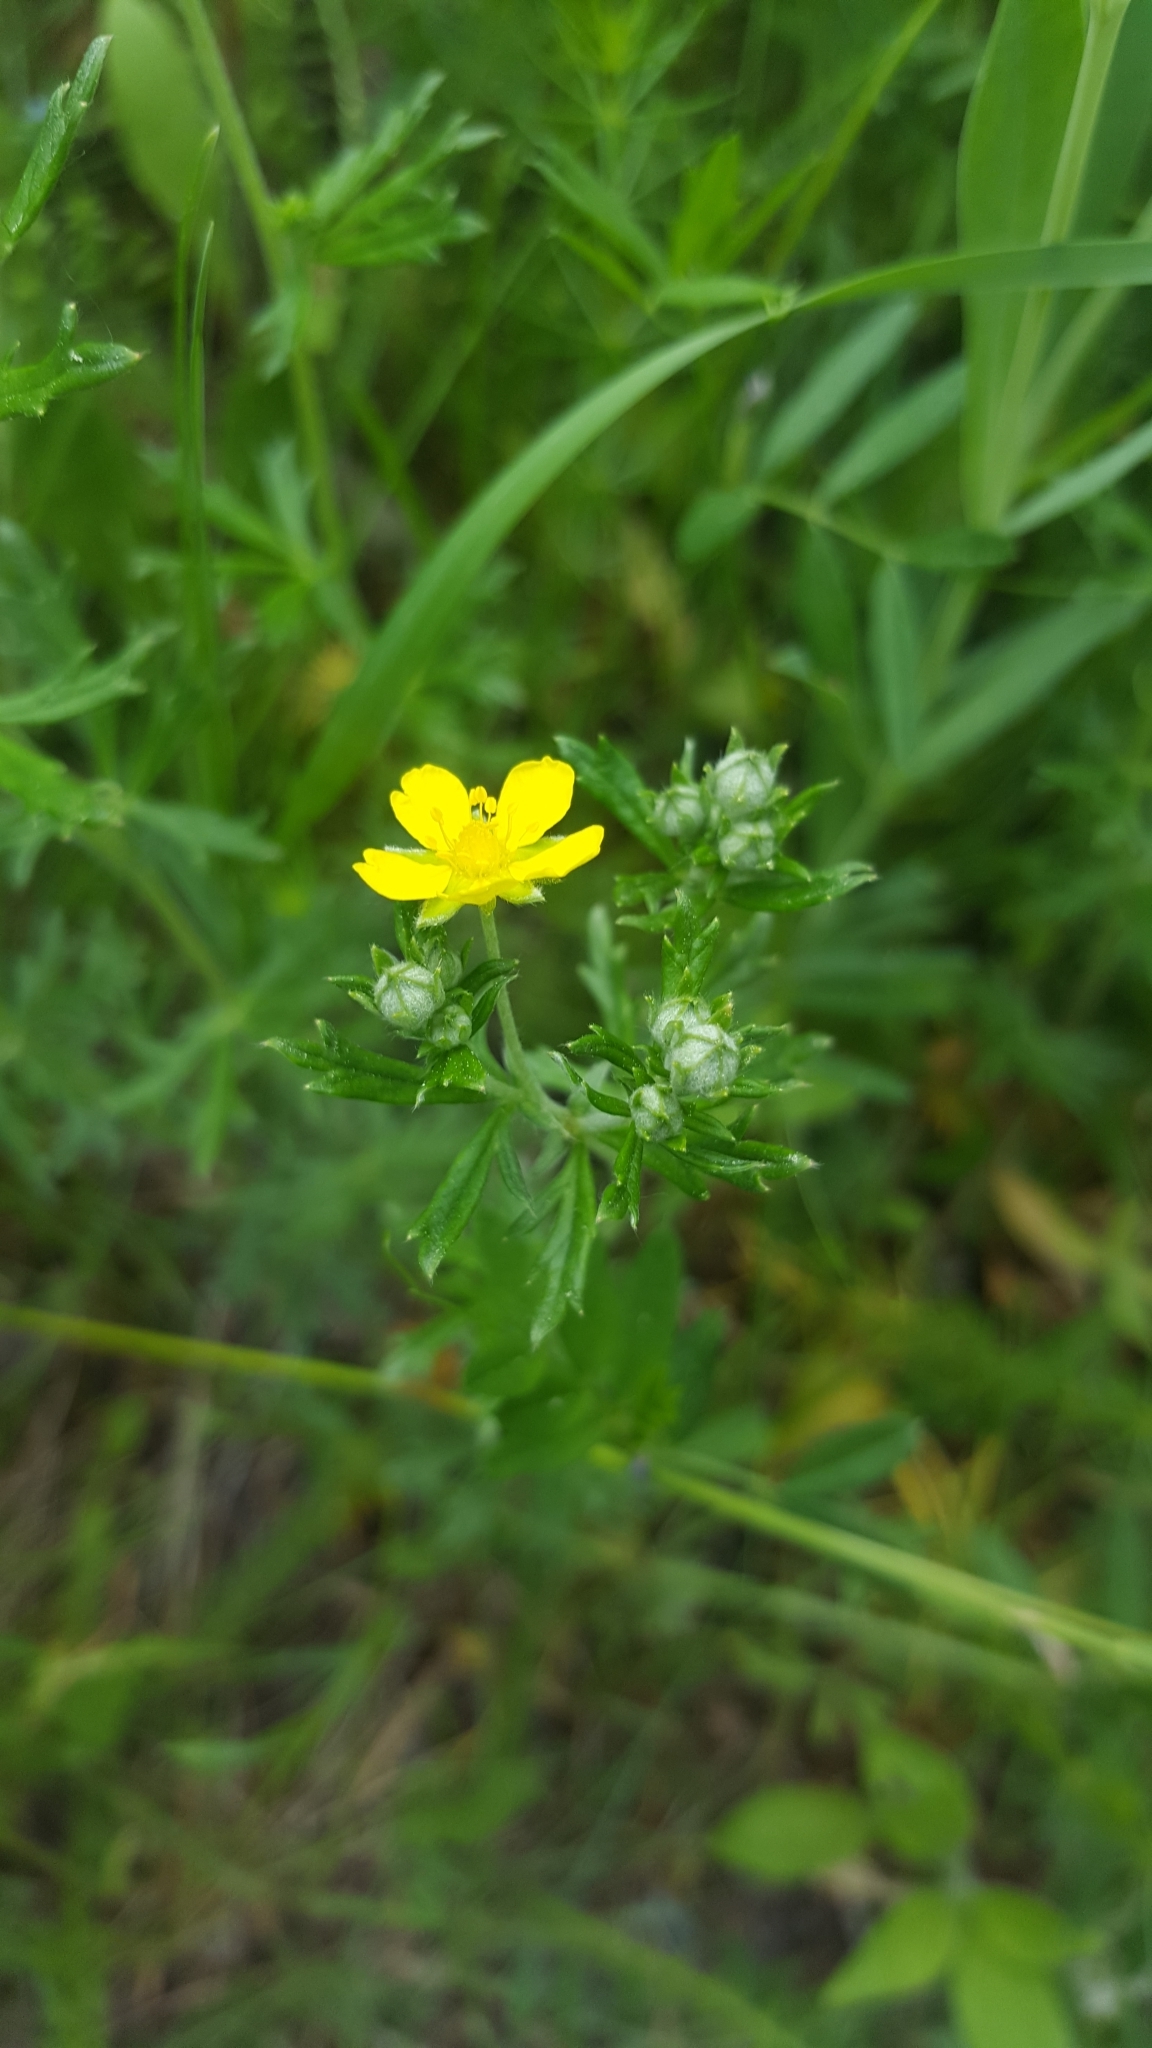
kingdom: Plantae
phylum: Tracheophyta
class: Magnoliopsida
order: Rosales
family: Rosaceae
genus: Potentilla
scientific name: Potentilla argentea
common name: Hoary cinquefoil
